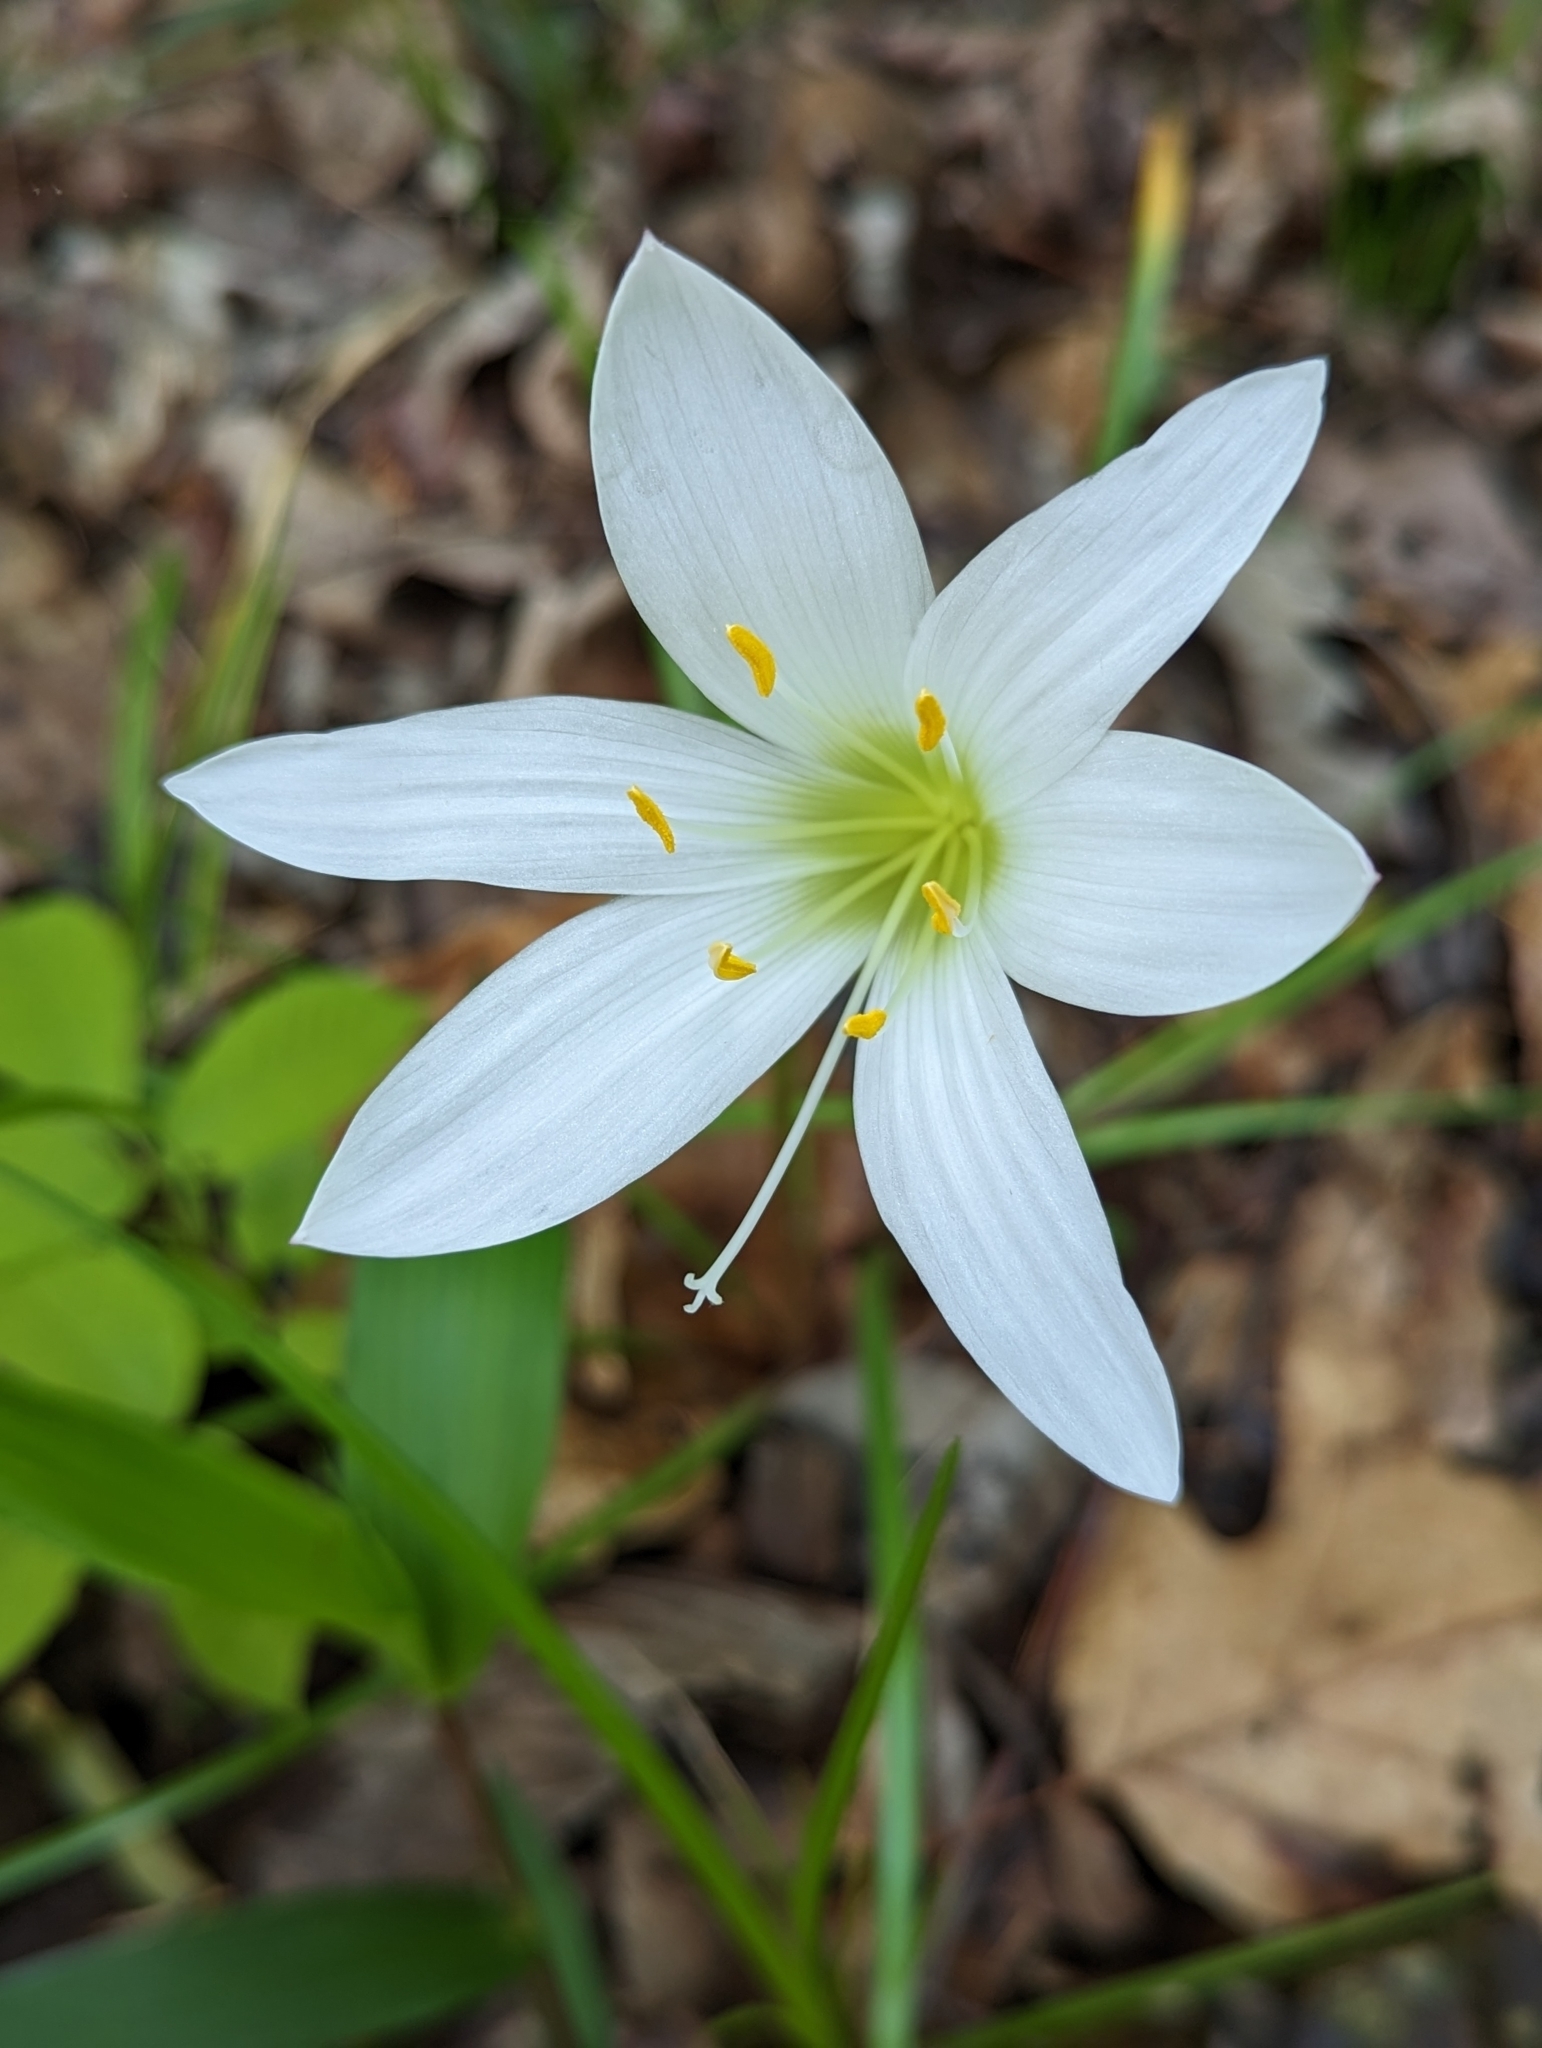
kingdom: Plantae
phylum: Tracheophyta
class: Liliopsida
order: Asparagales
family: Amaryllidaceae
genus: Zephyranthes
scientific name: Zephyranthes atamasco
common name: Atamasco lily
